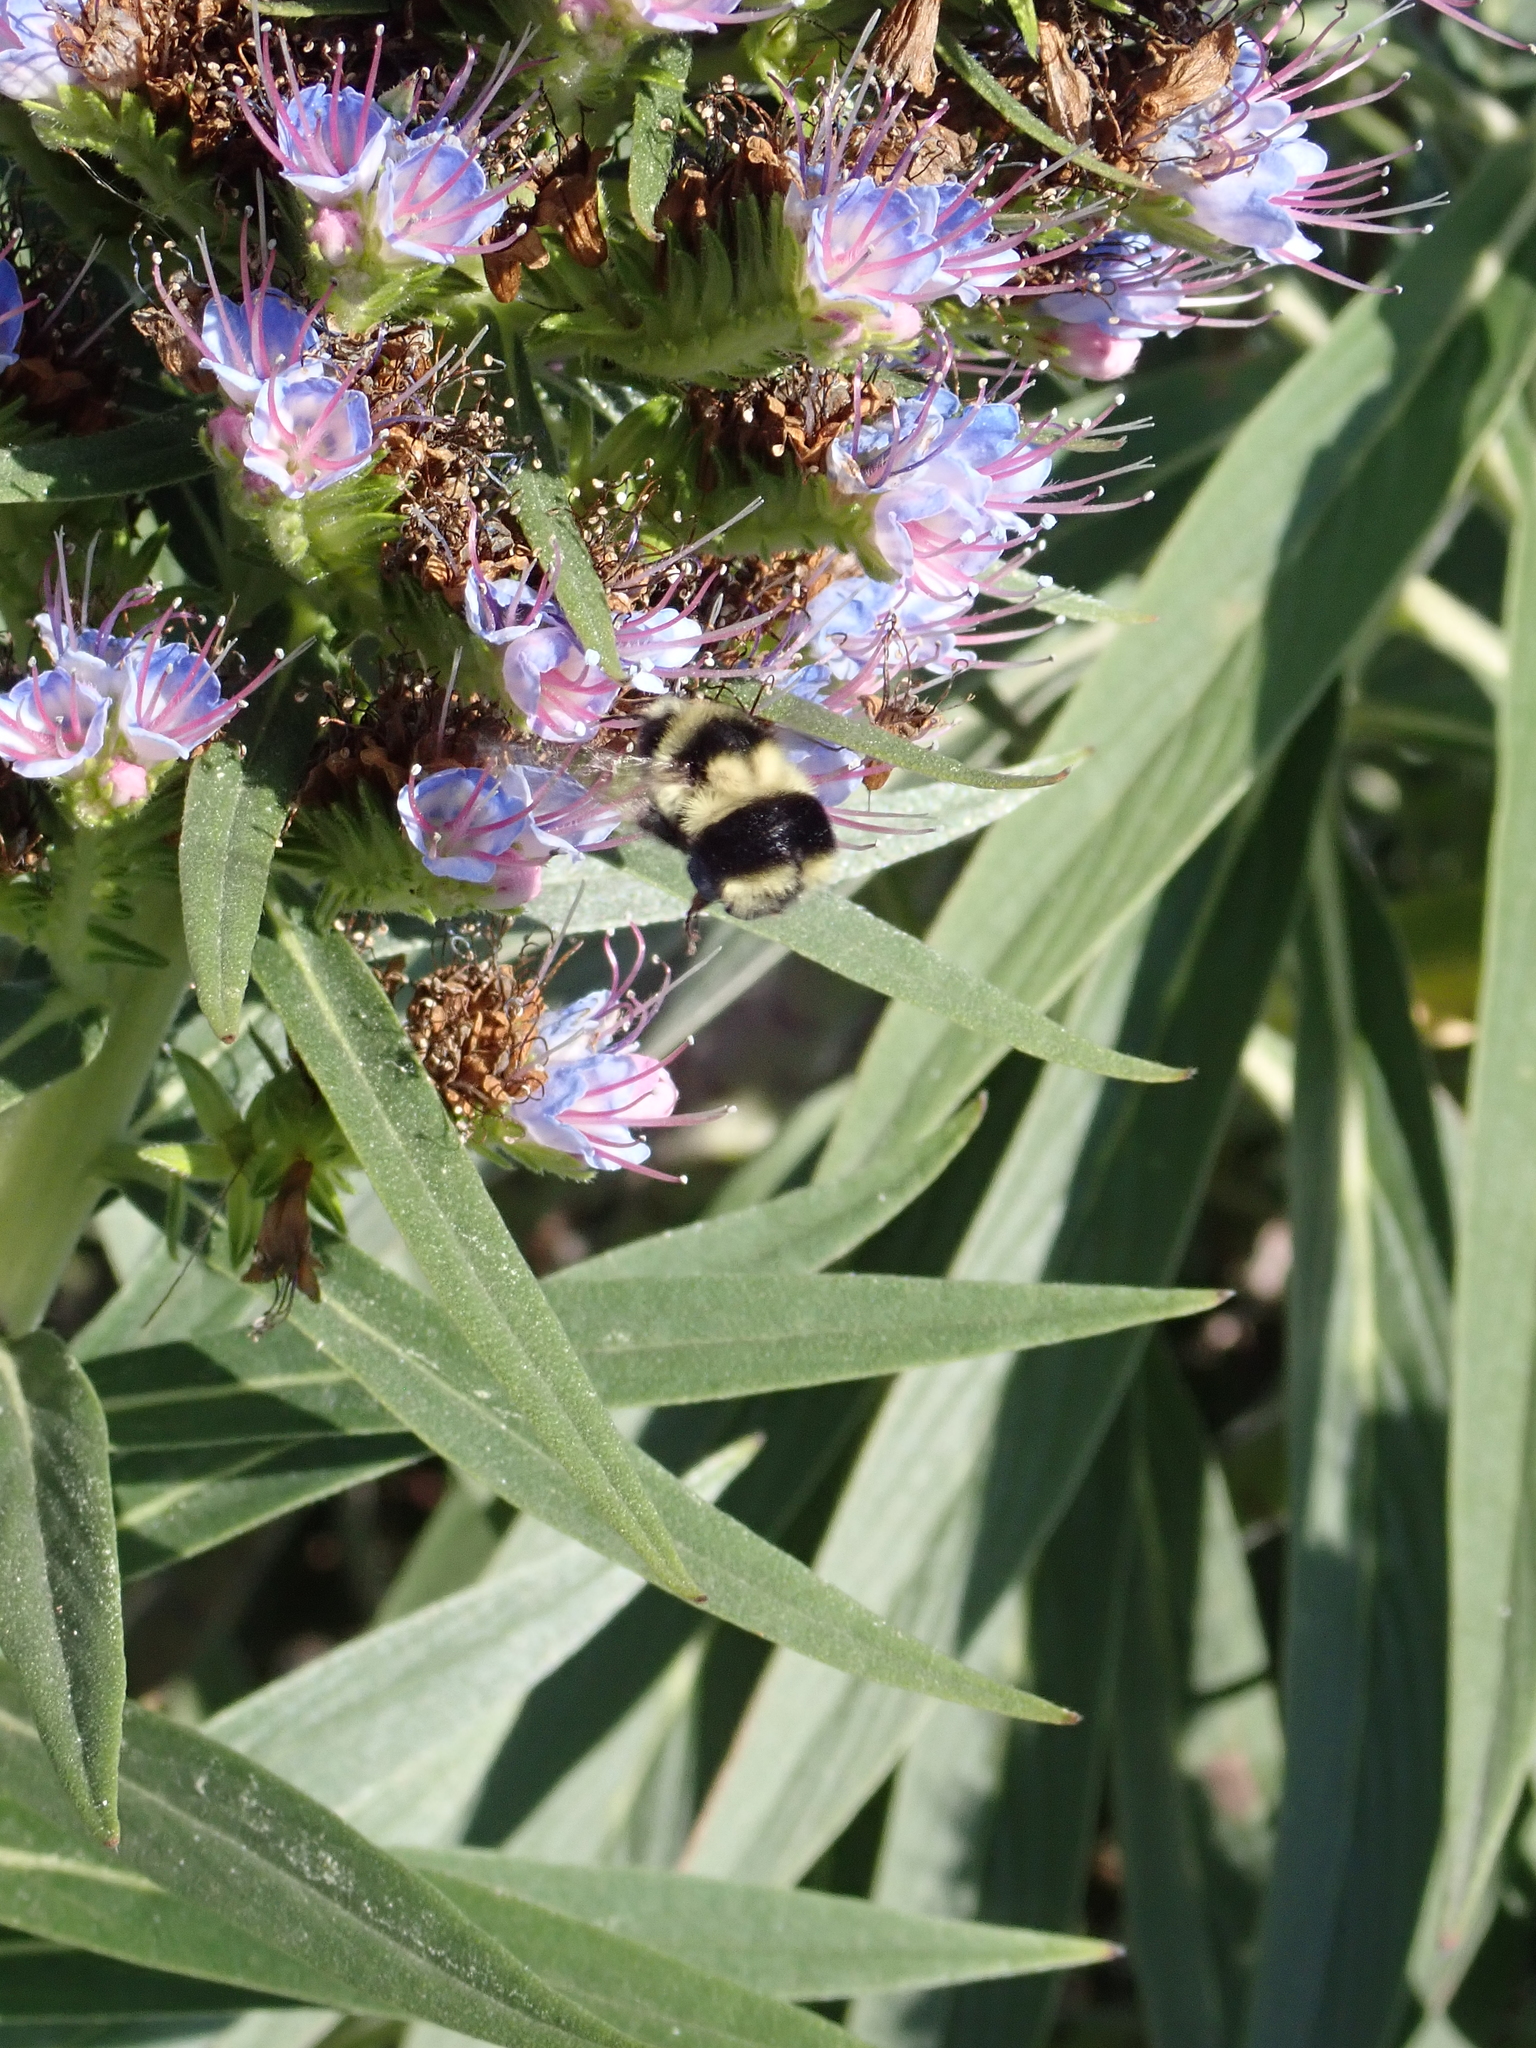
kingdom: Animalia
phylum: Arthropoda
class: Insecta
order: Hymenoptera
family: Apidae
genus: Bombus
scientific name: Bombus melanopygus
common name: Black tail bumble bee
